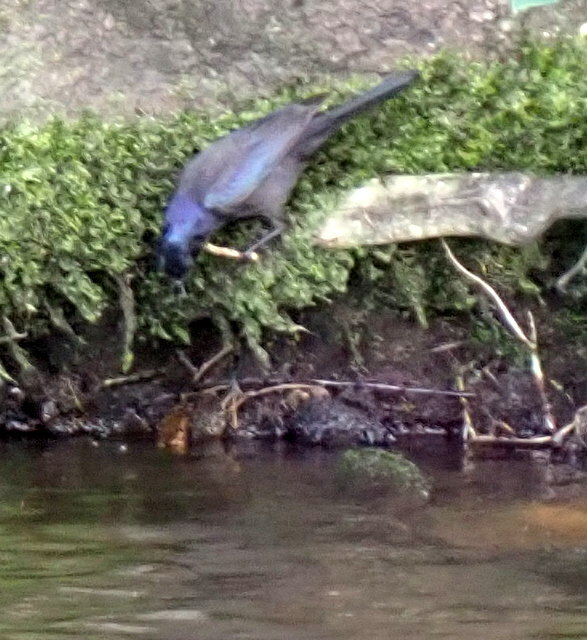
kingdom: Animalia
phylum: Chordata
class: Aves
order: Passeriformes
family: Icteridae
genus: Quiscalus
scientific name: Quiscalus quiscula
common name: Common grackle
